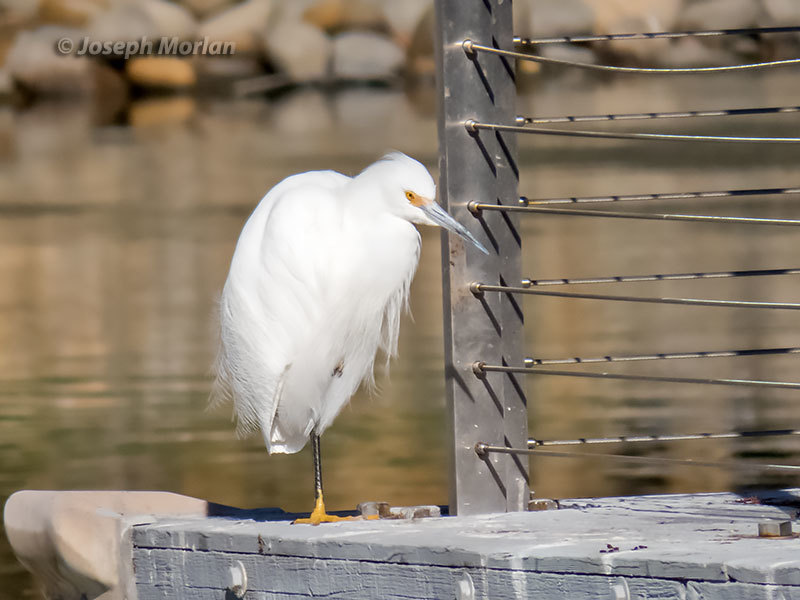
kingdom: Animalia
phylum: Chordata
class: Aves
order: Pelecaniformes
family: Ardeidae
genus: Egretta
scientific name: Egretta thula
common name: Snowy egret
